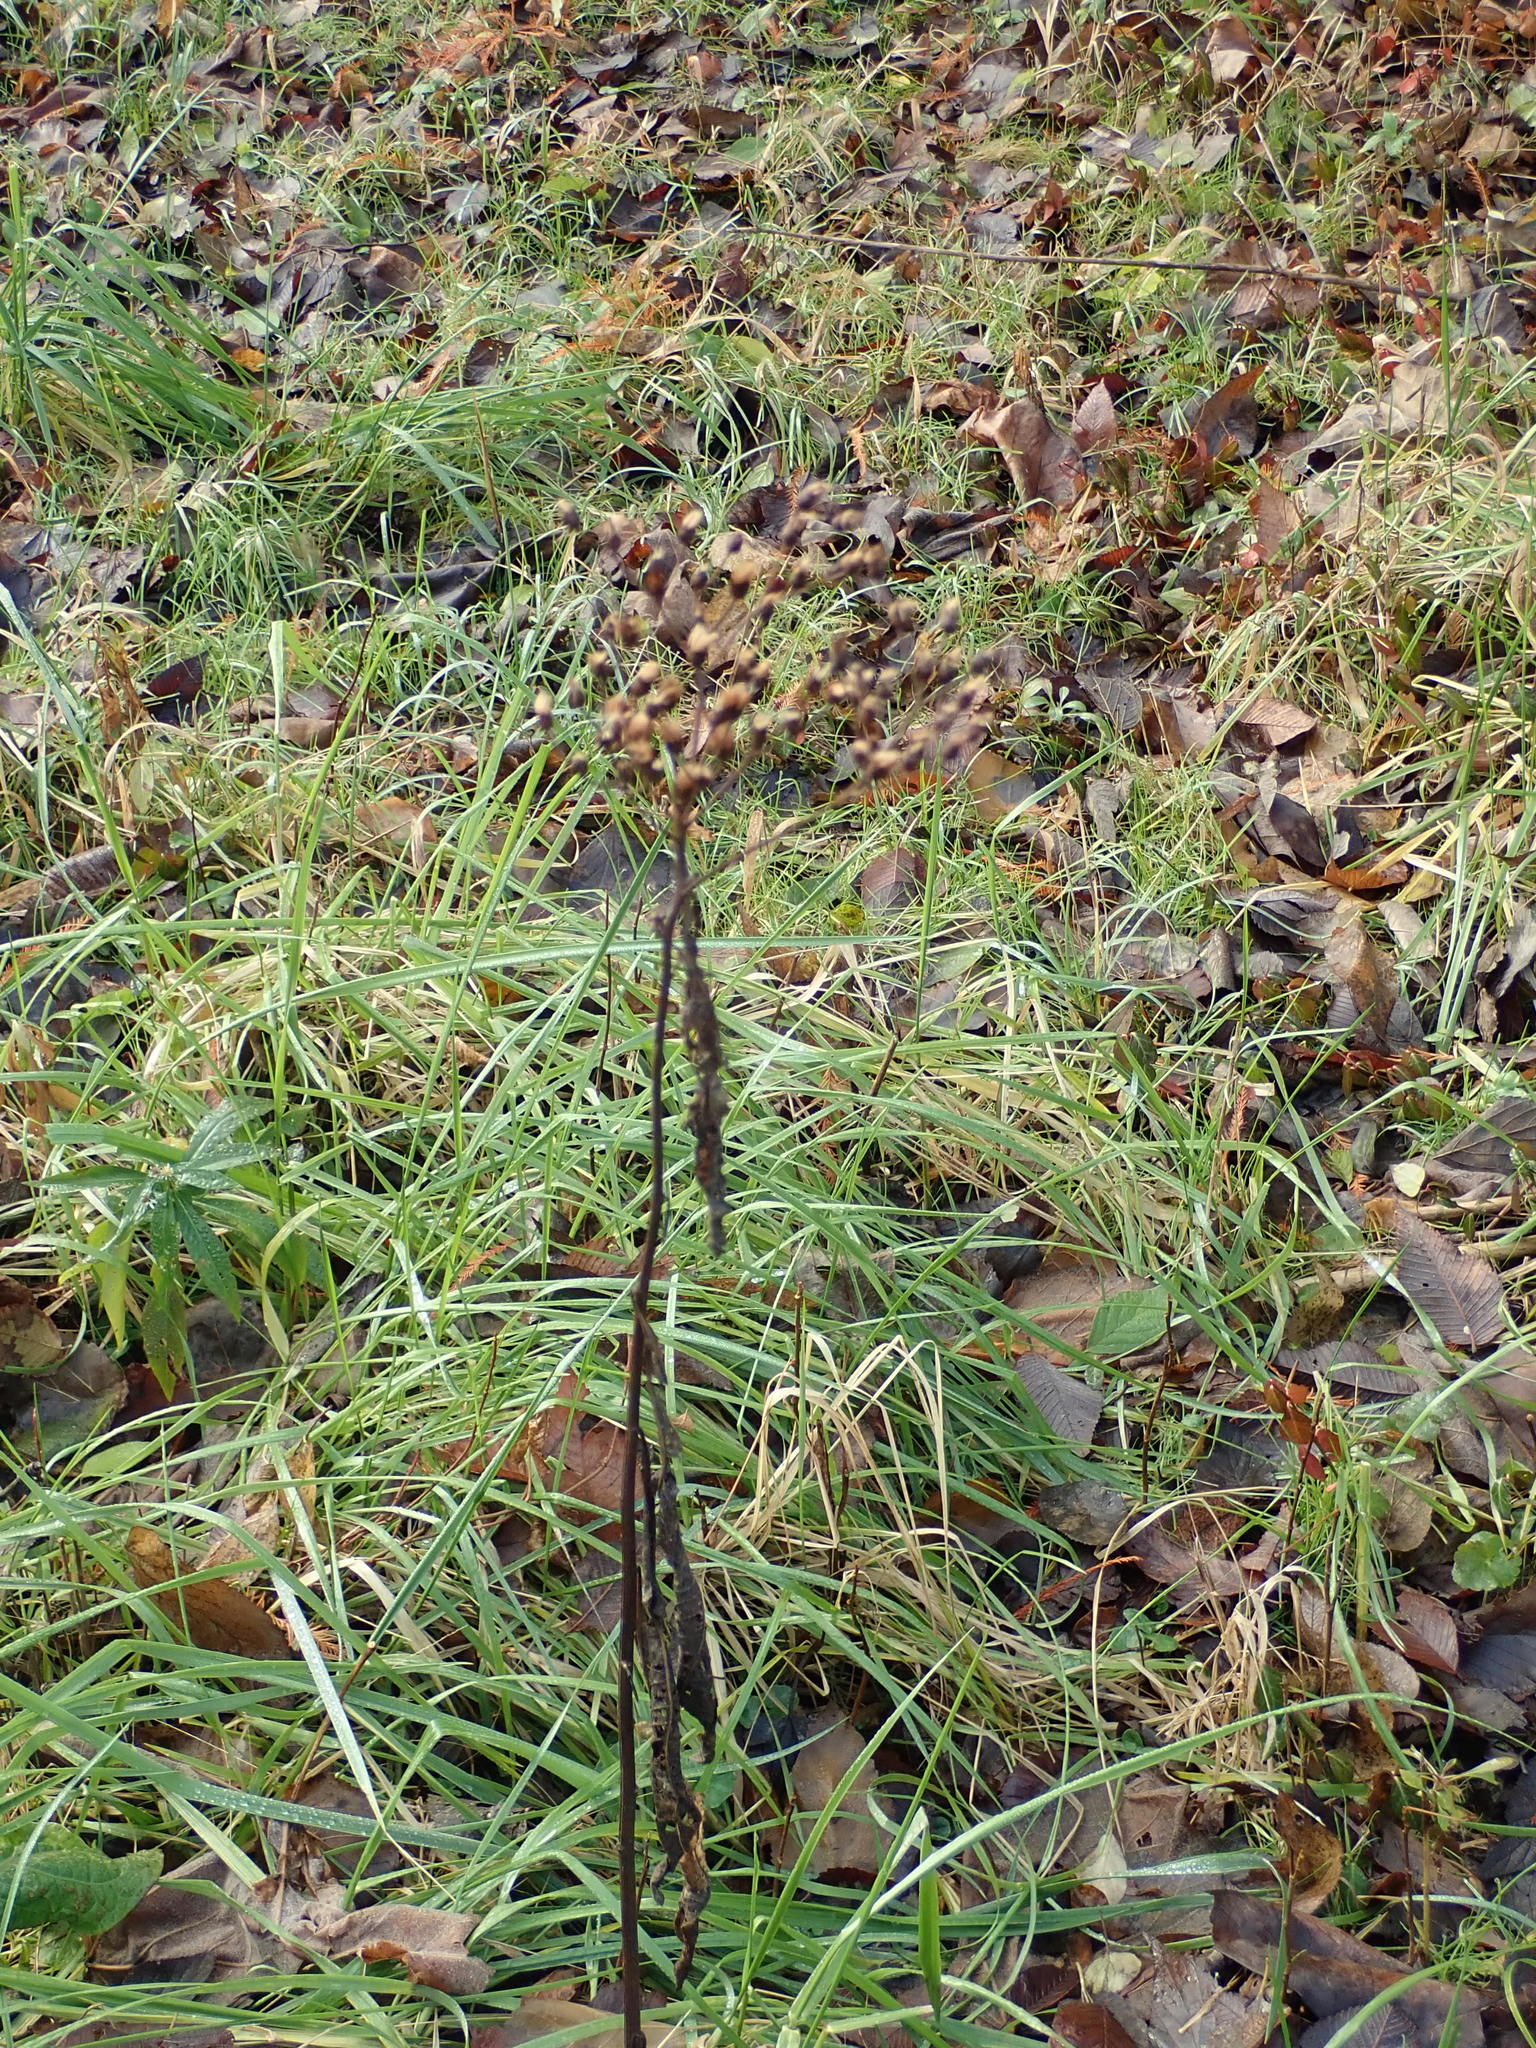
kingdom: Plantae
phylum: Tracheophyta
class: Magnoliopsida
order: Asterales
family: Asteraceae
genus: Vernonia
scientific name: Vernonia gigantea
